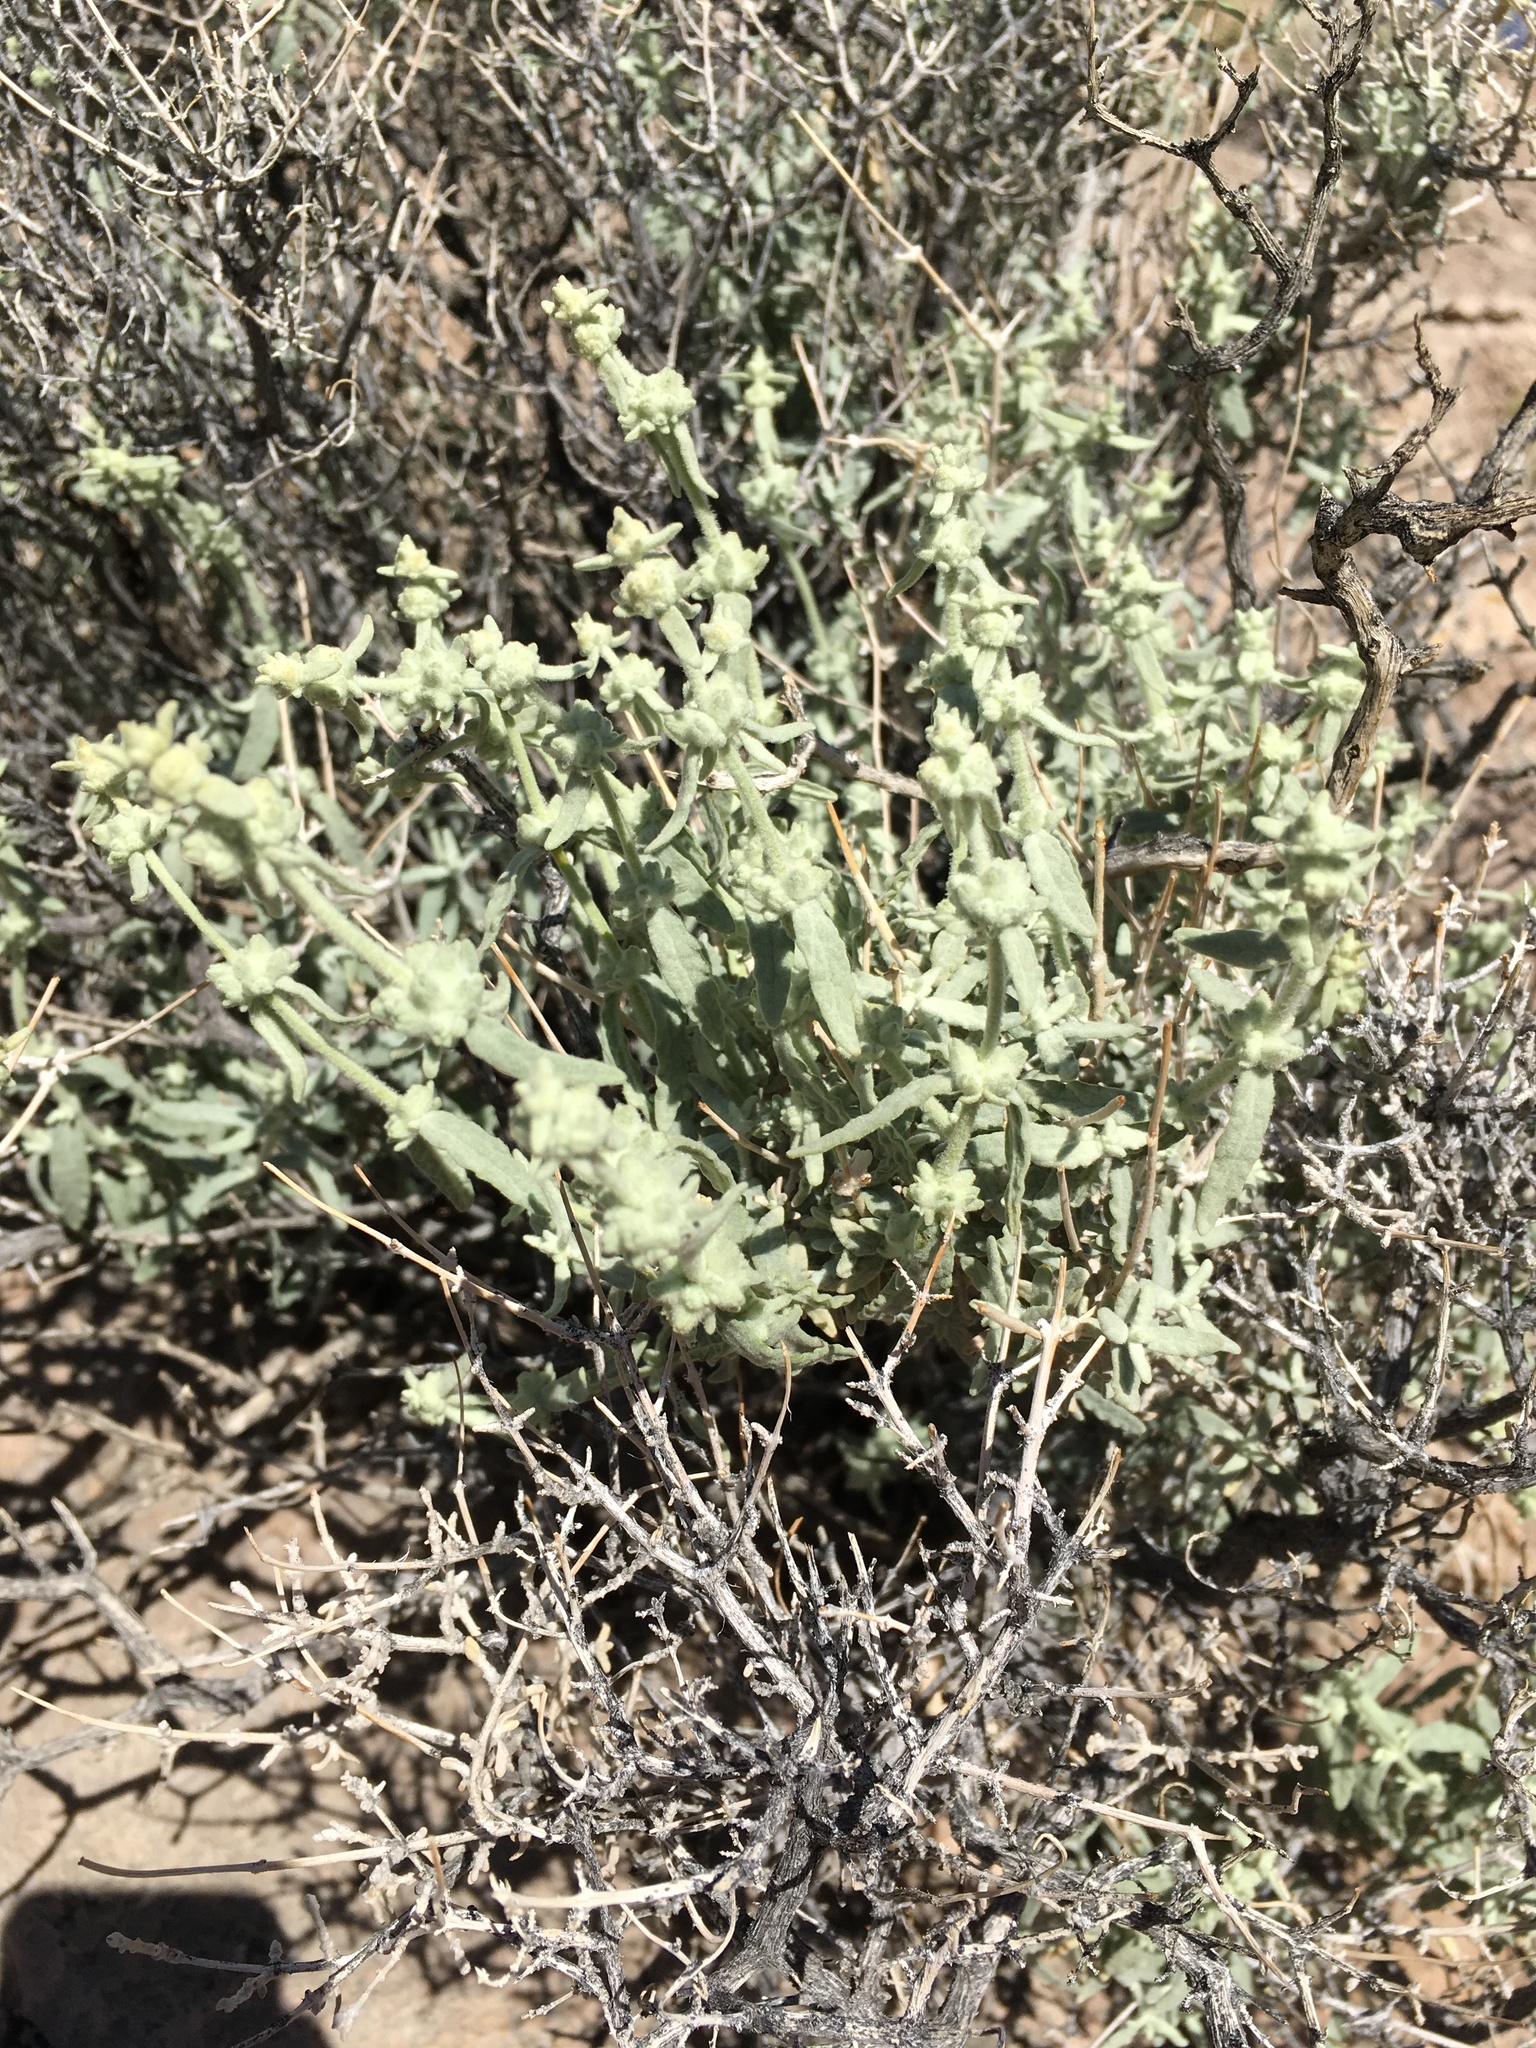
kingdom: Plantae
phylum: Tracheophyta
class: Magnoliopsida
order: Lamiales
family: Scrophulariaceae
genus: Buddleja
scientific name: Buddleja utahensis
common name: Utah butterfly-bush
